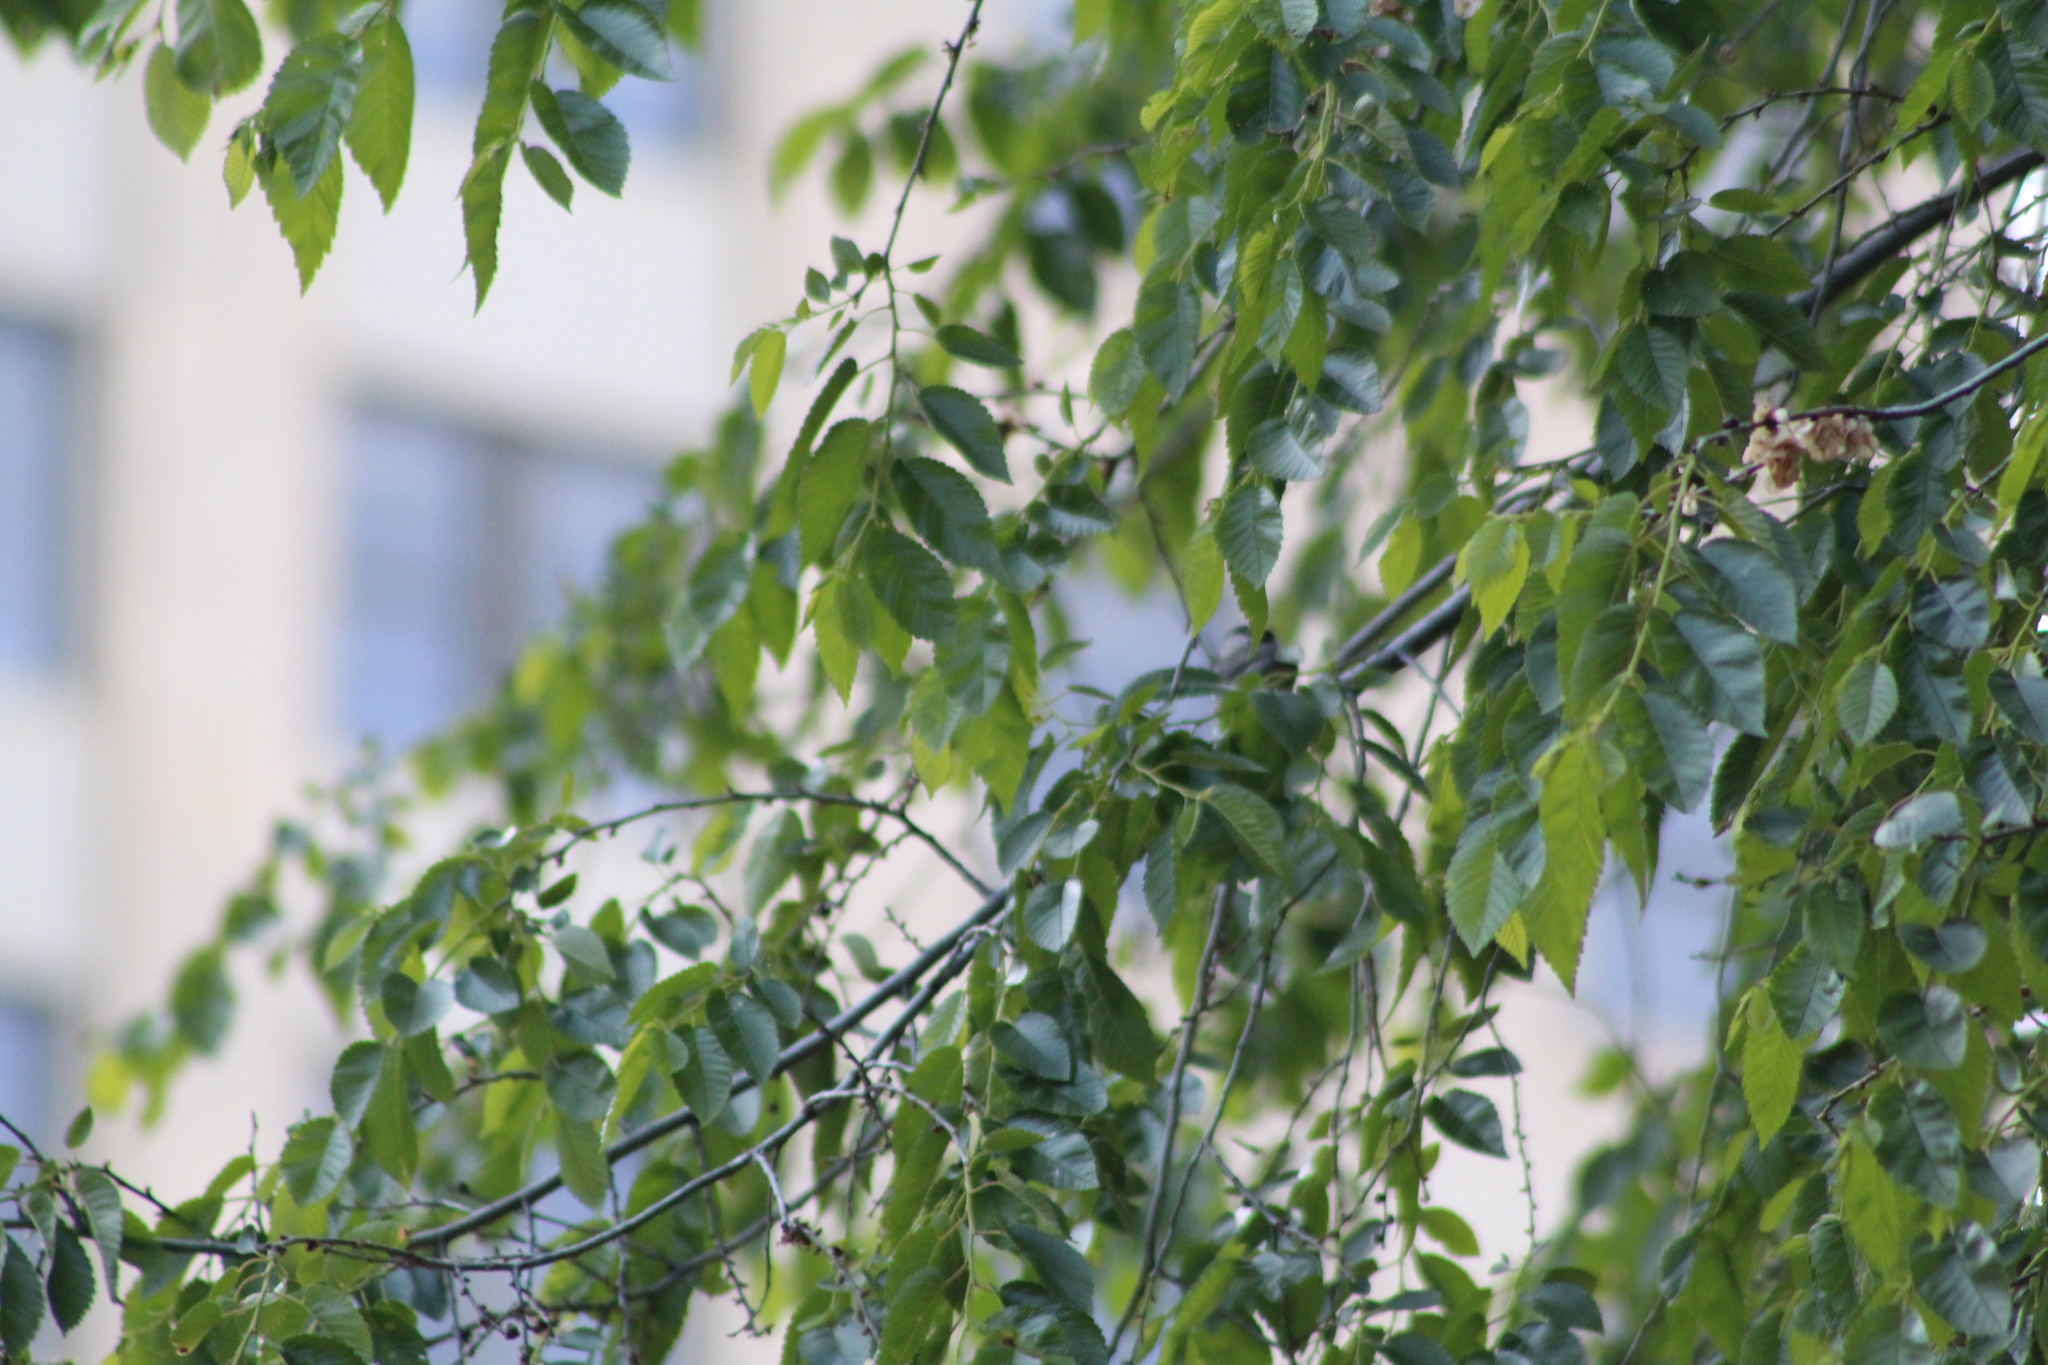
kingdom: Animalia
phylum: Chordata
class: Aves
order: Passeriformes
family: Paridae
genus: Poecile
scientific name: Poecile atricapillus
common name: Black-capped chickadee
